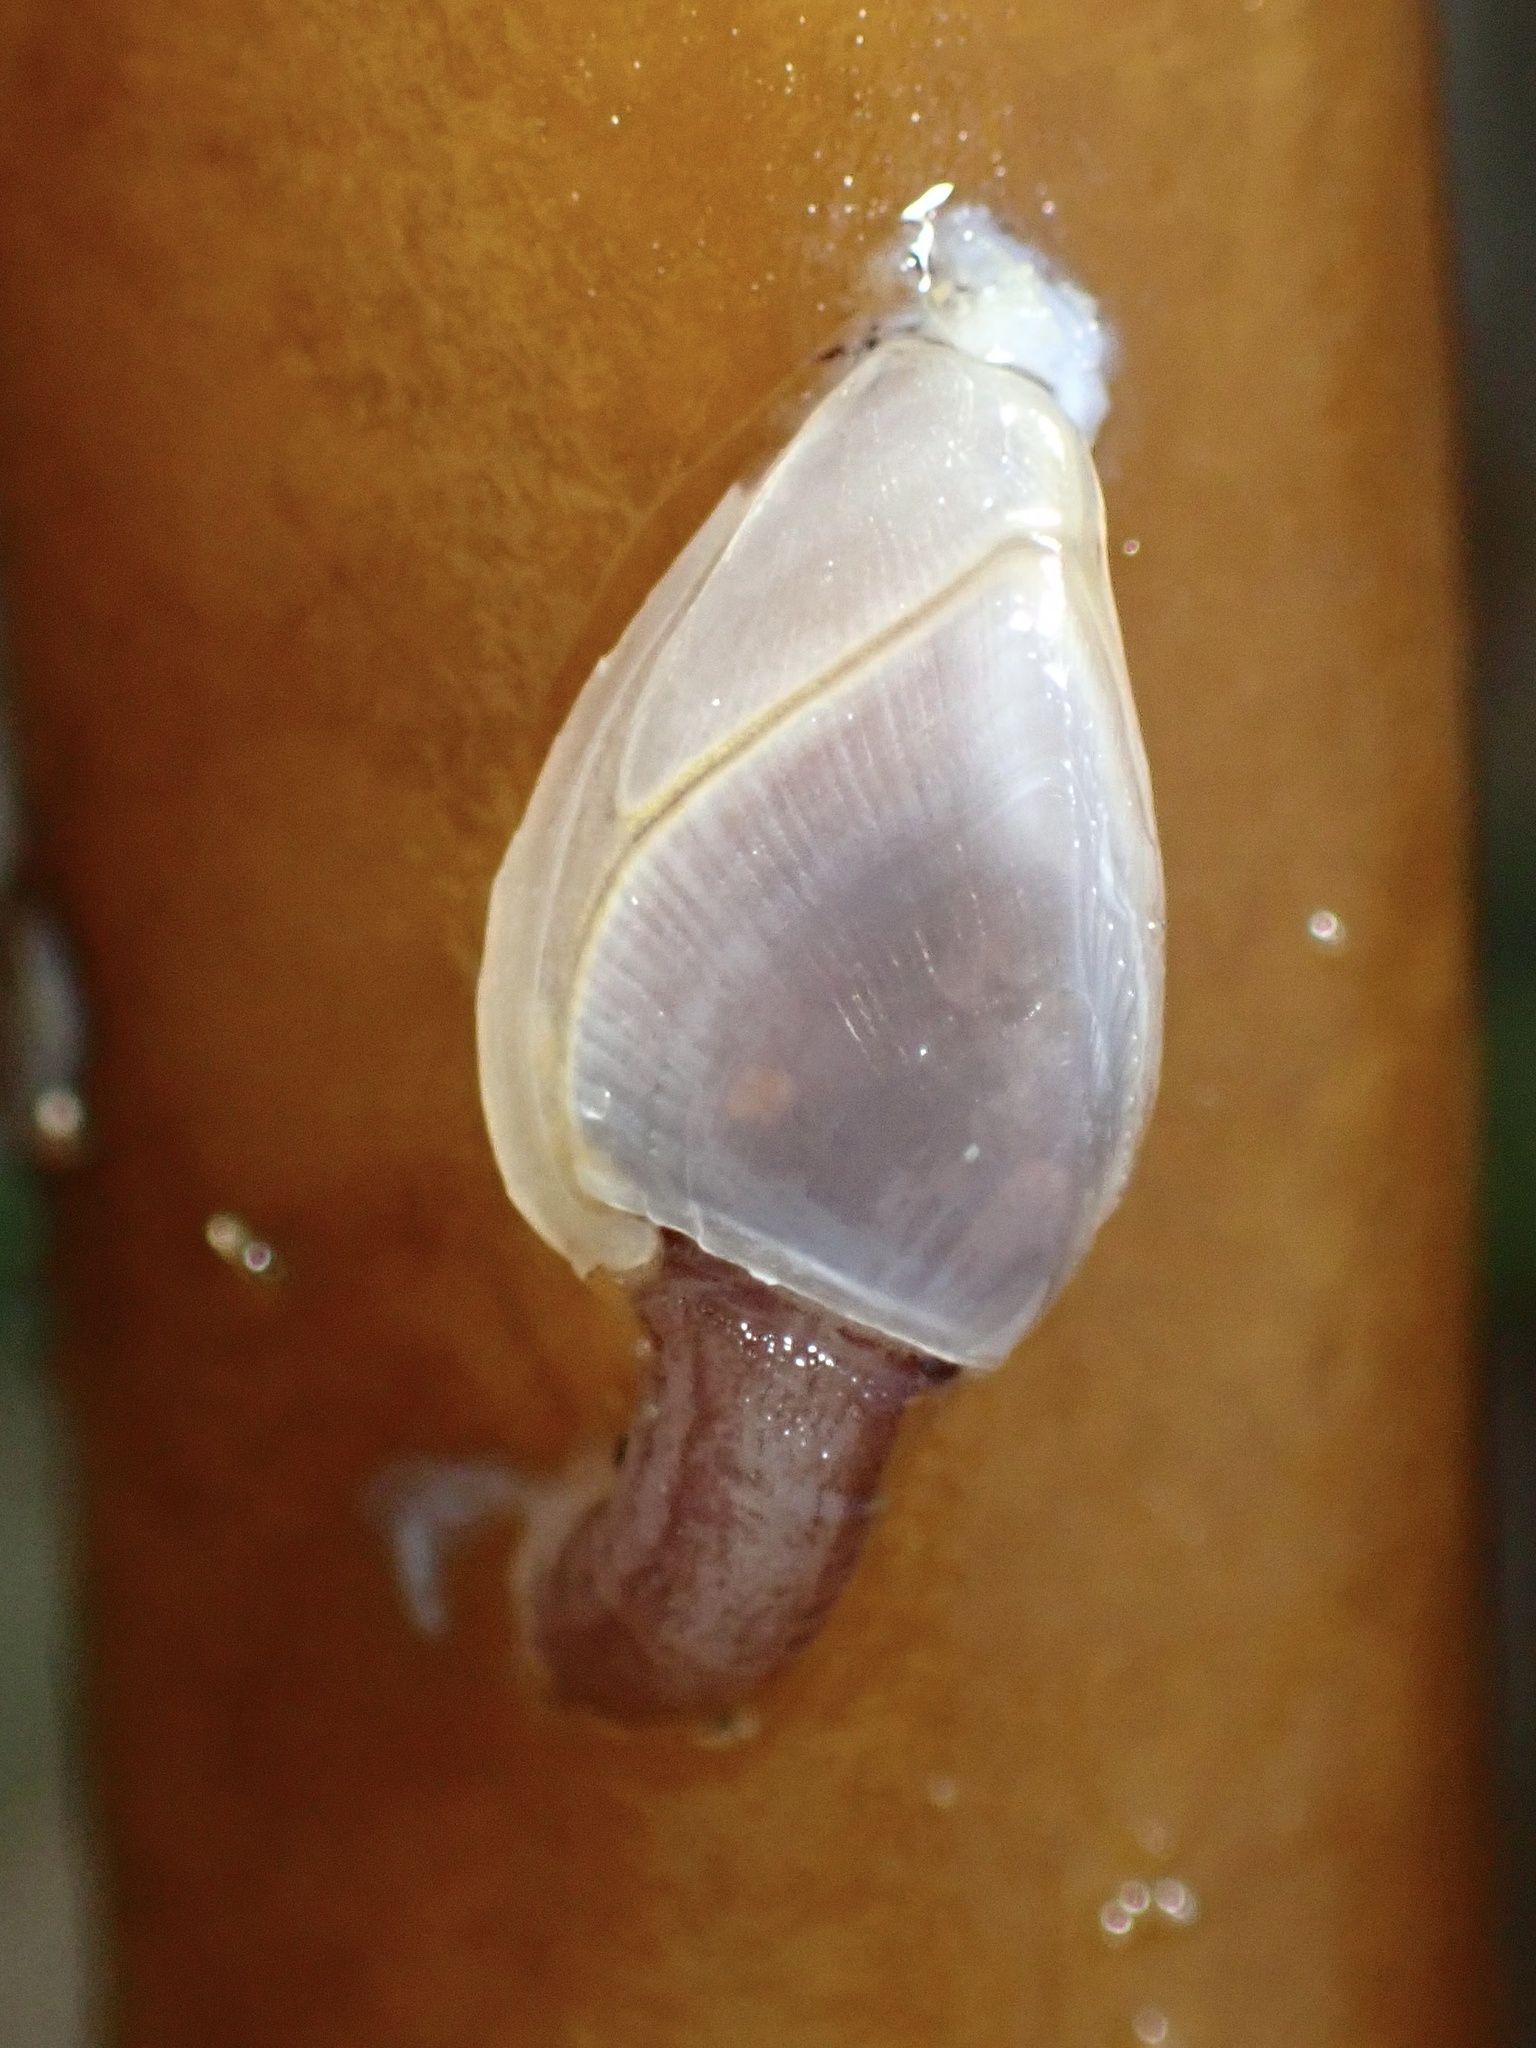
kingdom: Animalia
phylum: Arthropoda
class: Maxillopoda
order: Pedunculata
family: Lepadidae
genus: Lepas
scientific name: Lepas pacifica
